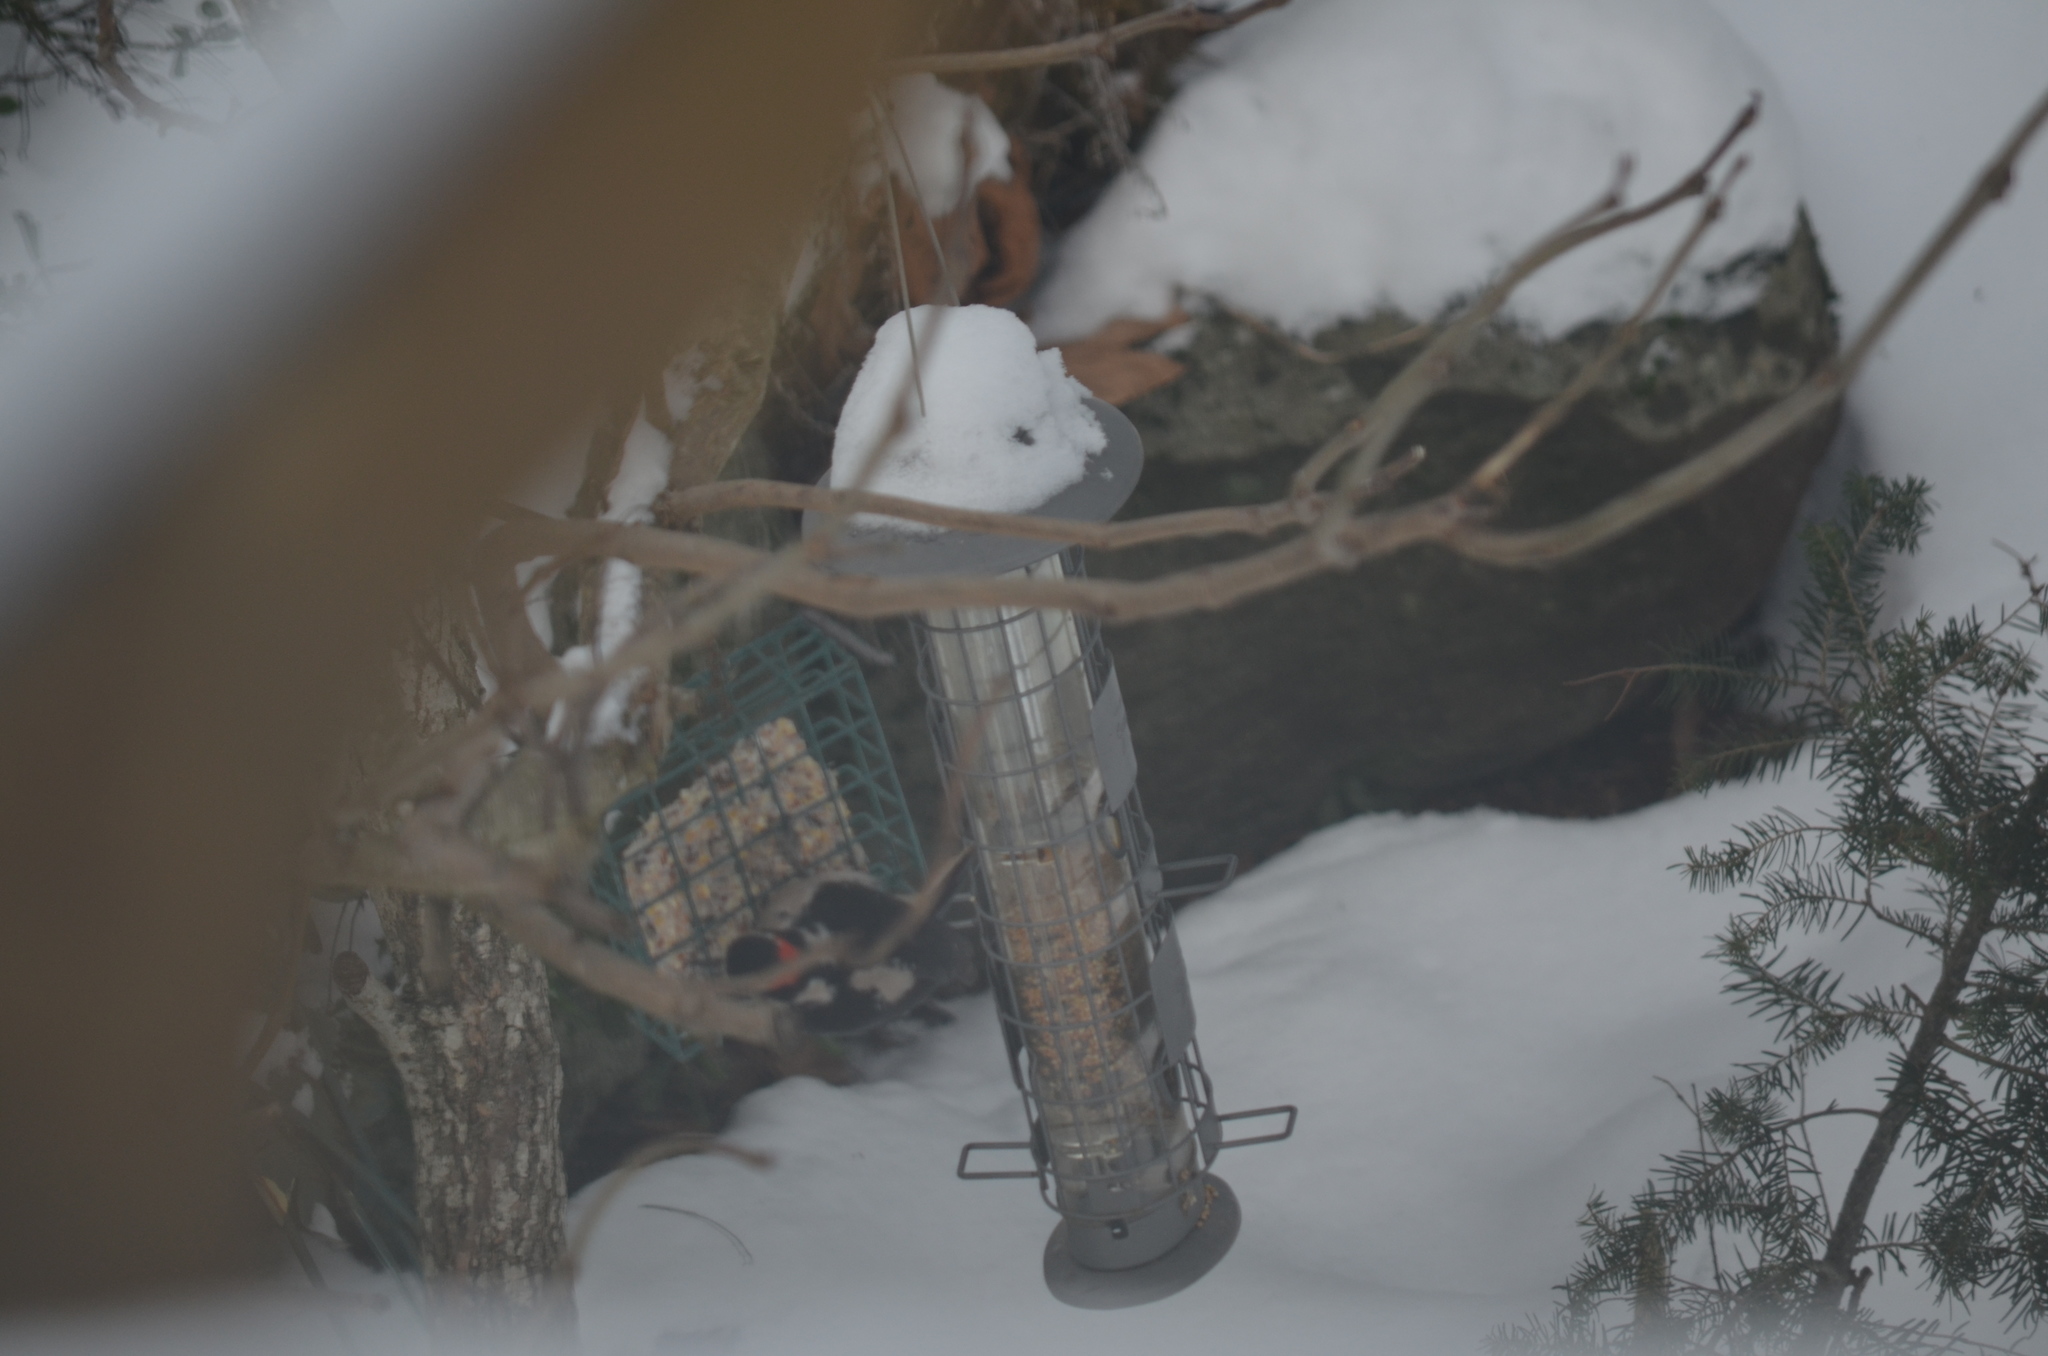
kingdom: Animalia
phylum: Chordata
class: Aves
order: Piciformes
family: Picidae
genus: Leuconotopicus
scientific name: Leuconotopicus villosus
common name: Hairy woodpecker
